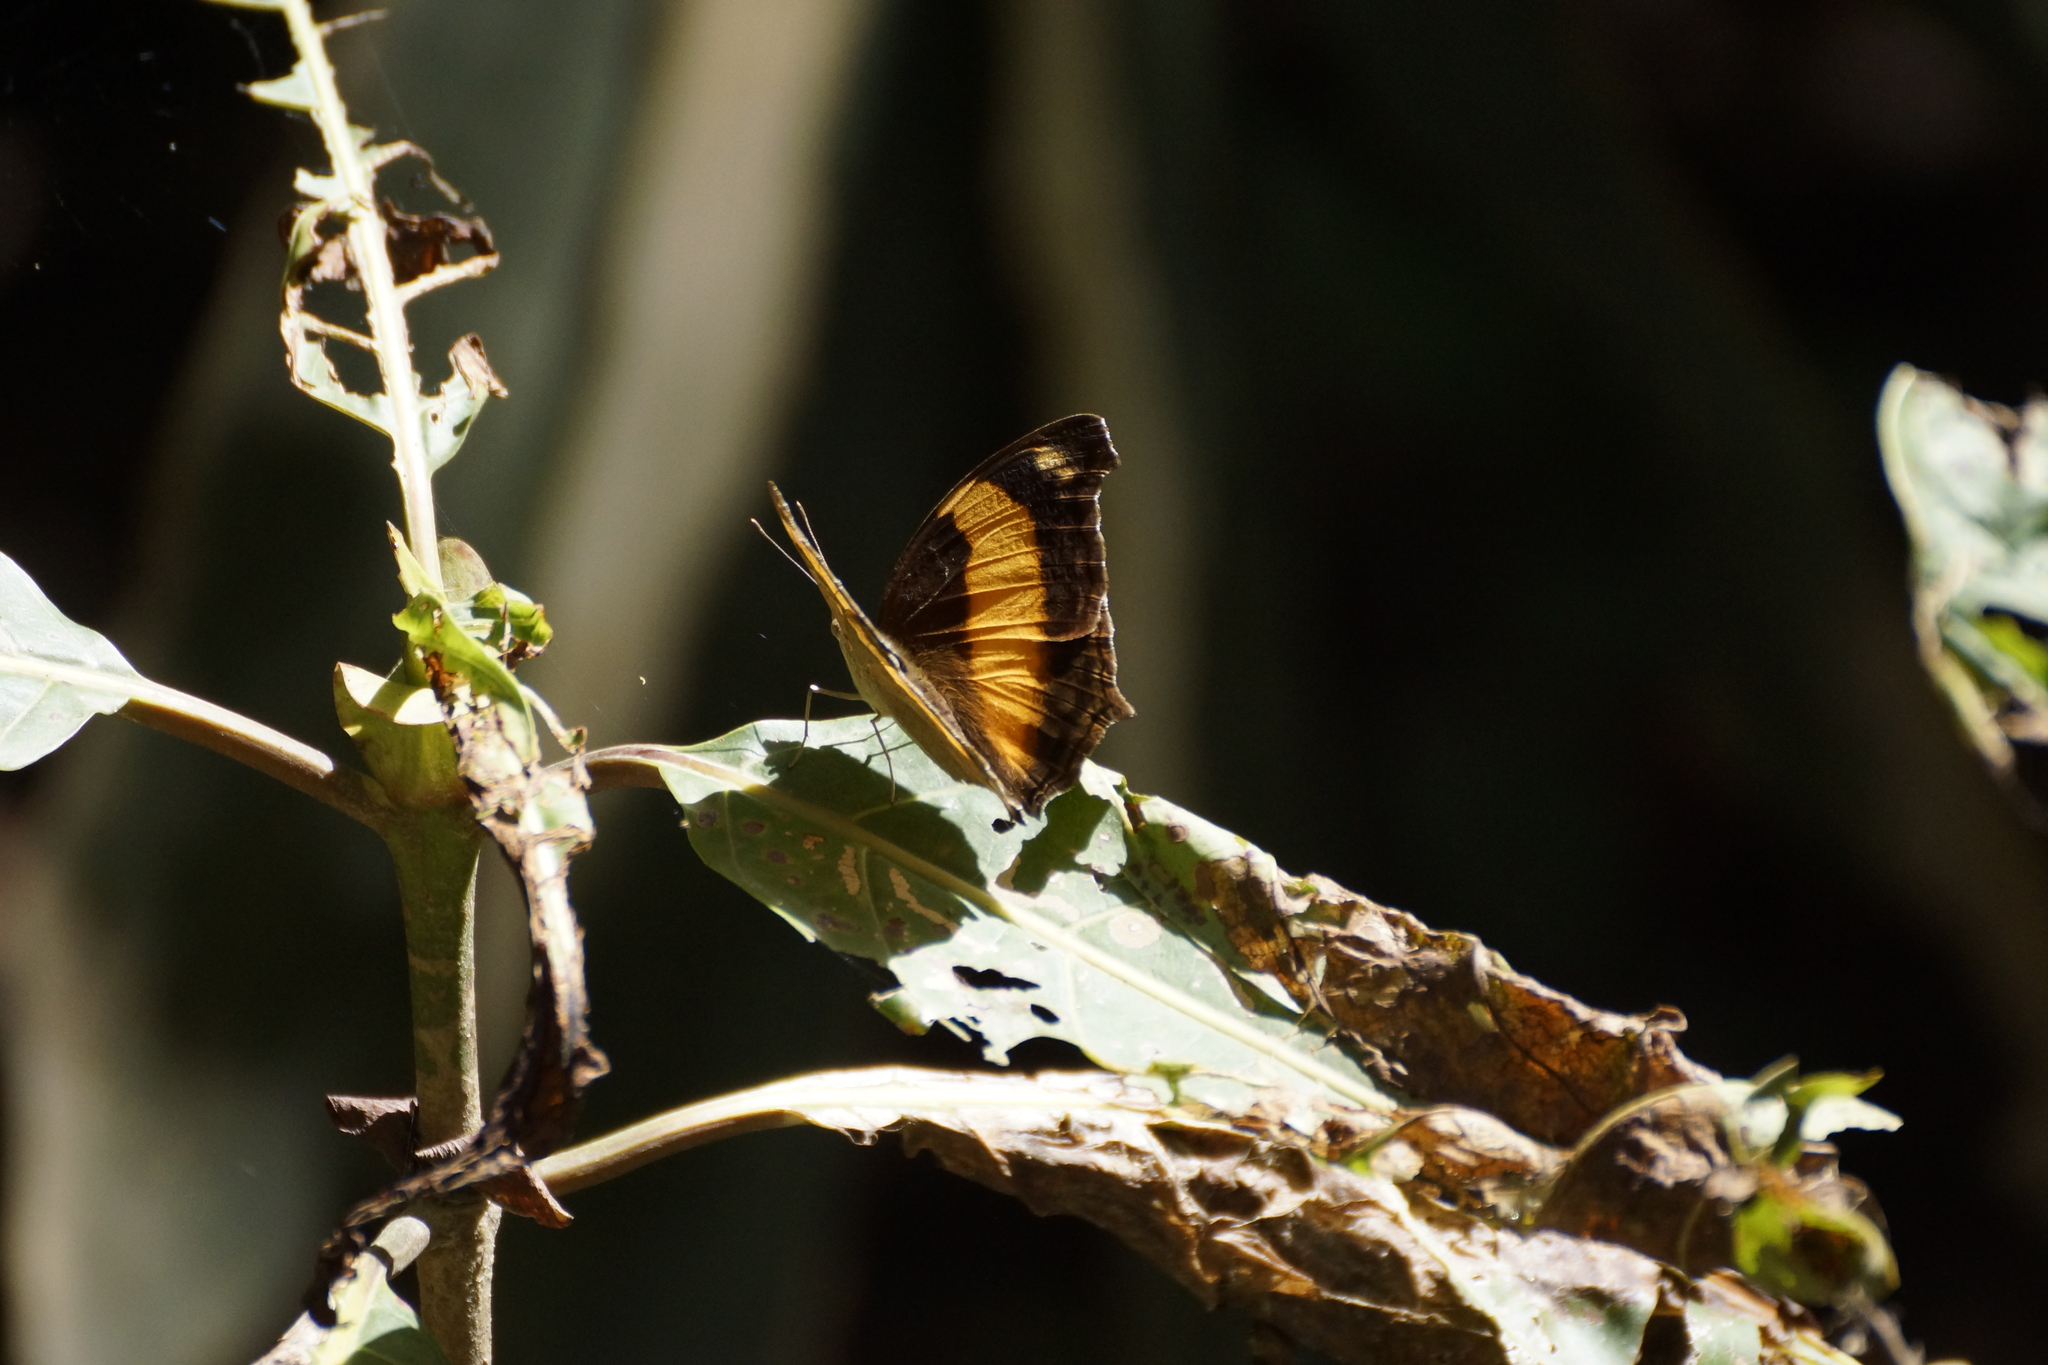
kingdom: Animalia
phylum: Arthropoda
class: Insecta
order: Lepidoptera
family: Nymphalidae
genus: Yoma
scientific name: Yoma sabina
